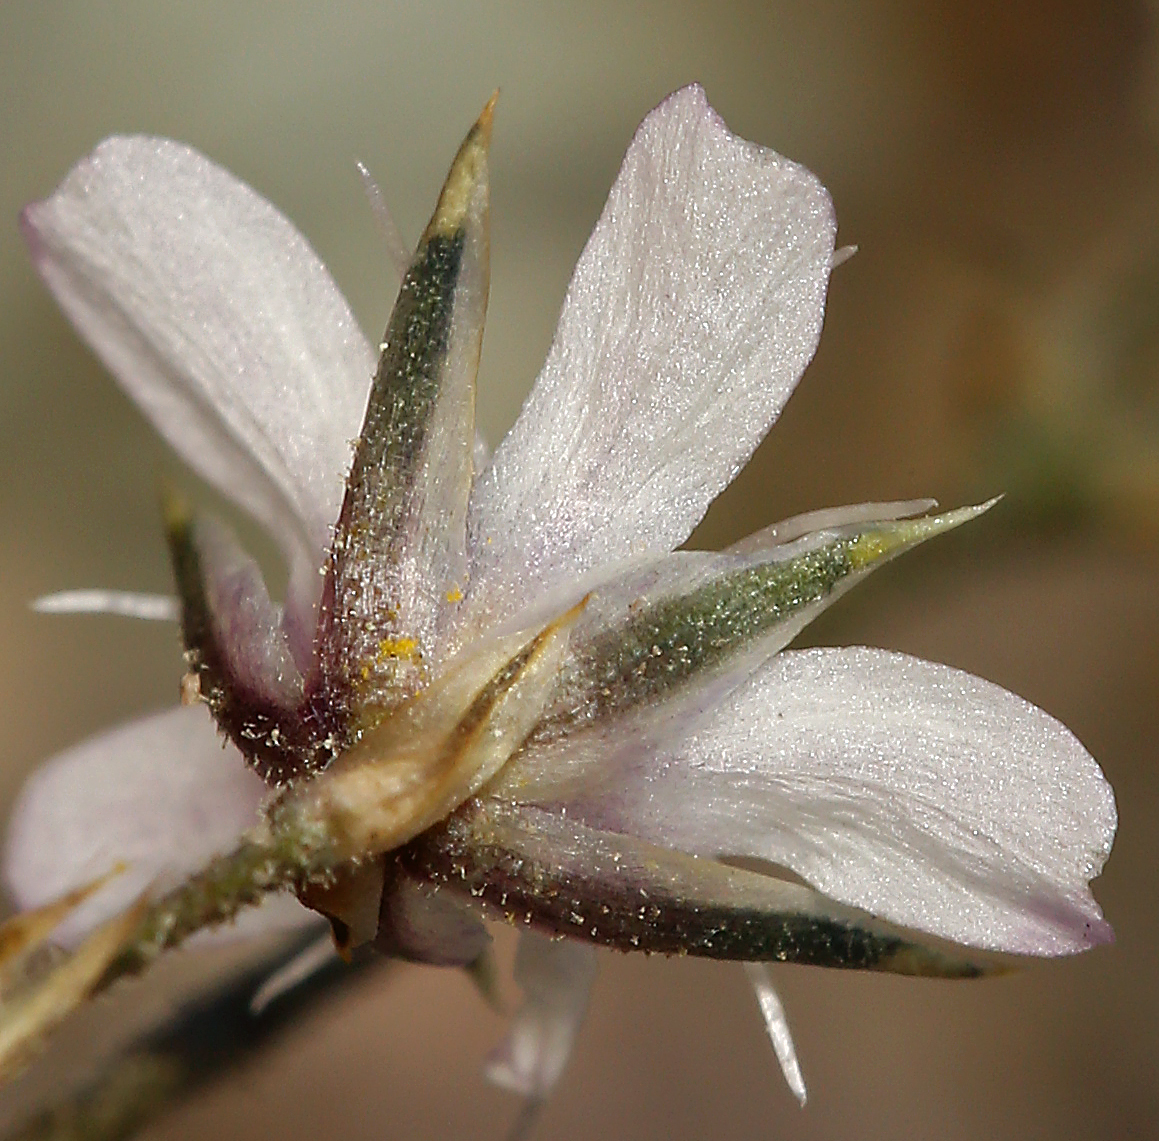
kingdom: Plantae
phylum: Tracheophyta
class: Magnoliopsida
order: Caryophyllales
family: Caryophyllaceae
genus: Eremogone
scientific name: Eremogone kingii
